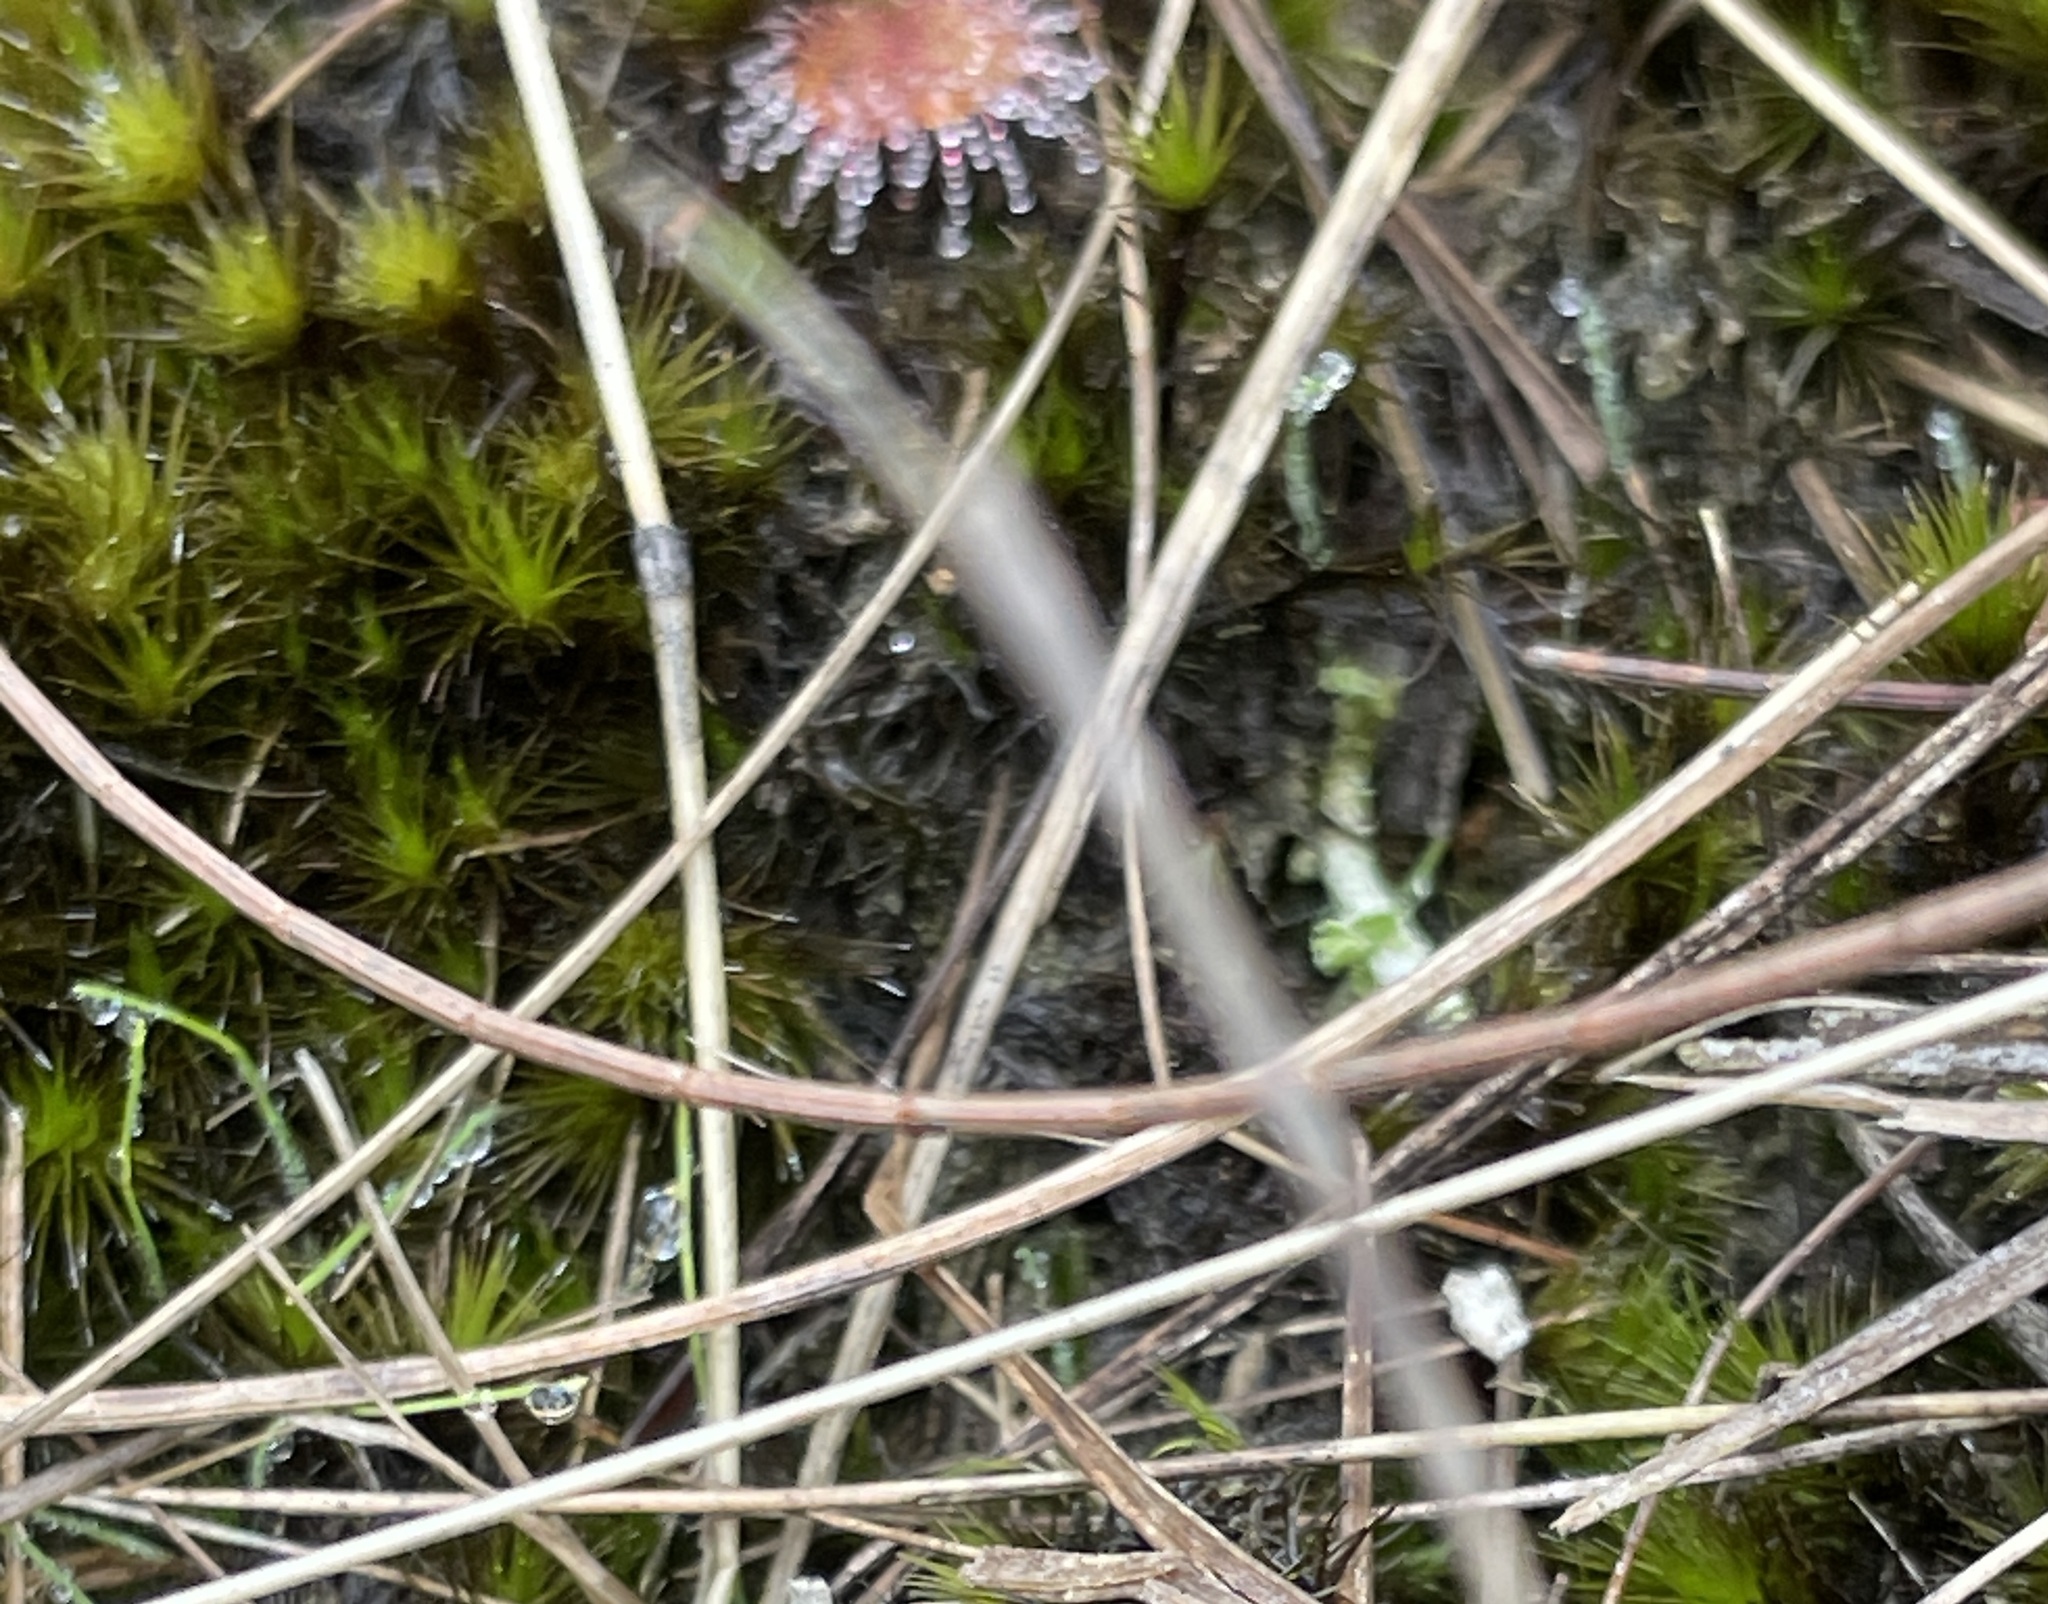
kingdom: Plantae
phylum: Bryophyta
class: Bryopsida
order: Dicranales
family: Leucobryaceae
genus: Campylopus
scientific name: Campylopus introflexus
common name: Heath star moss
